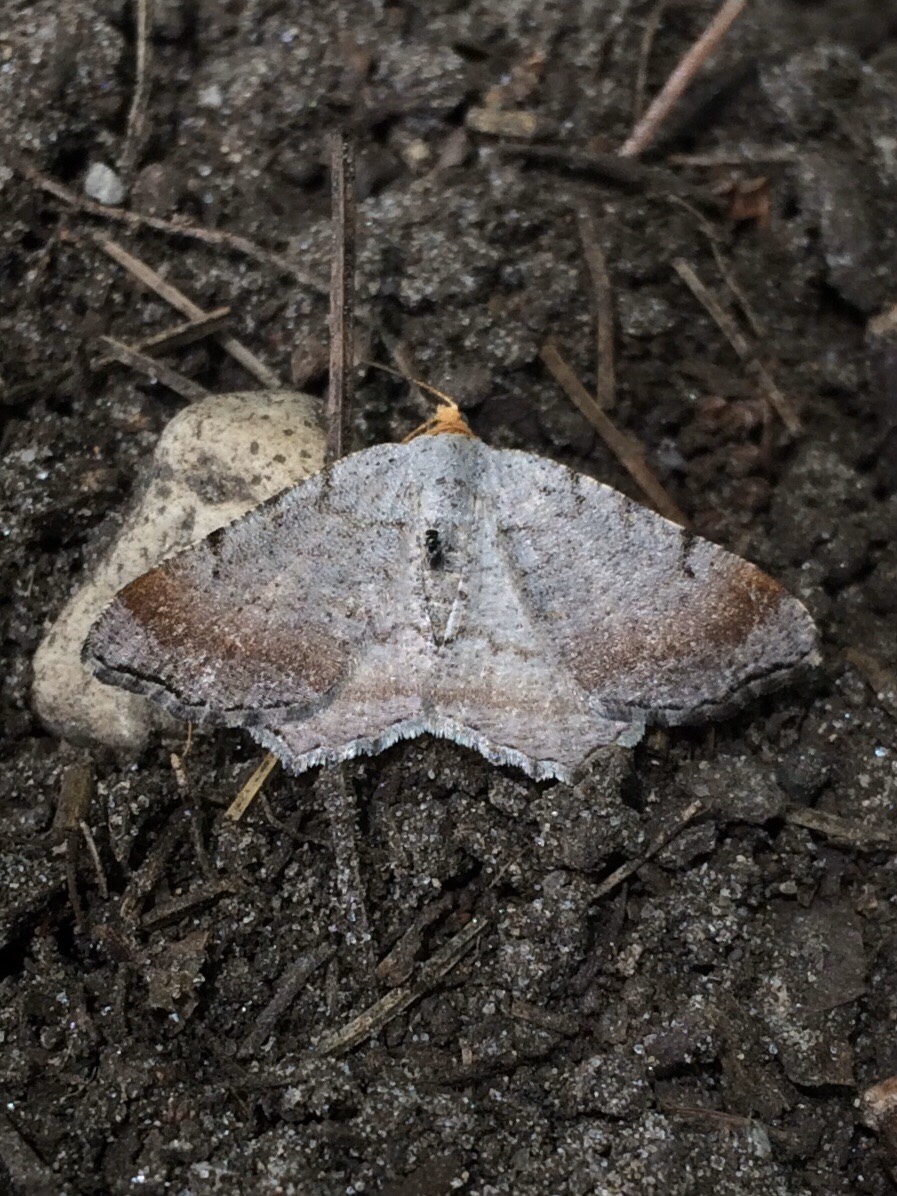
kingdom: Animalia
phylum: Arthropoda
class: Insecta
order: Lepidoptera
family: Geometridae
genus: Macaria
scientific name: Macaria minorata
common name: Minor angle moth
